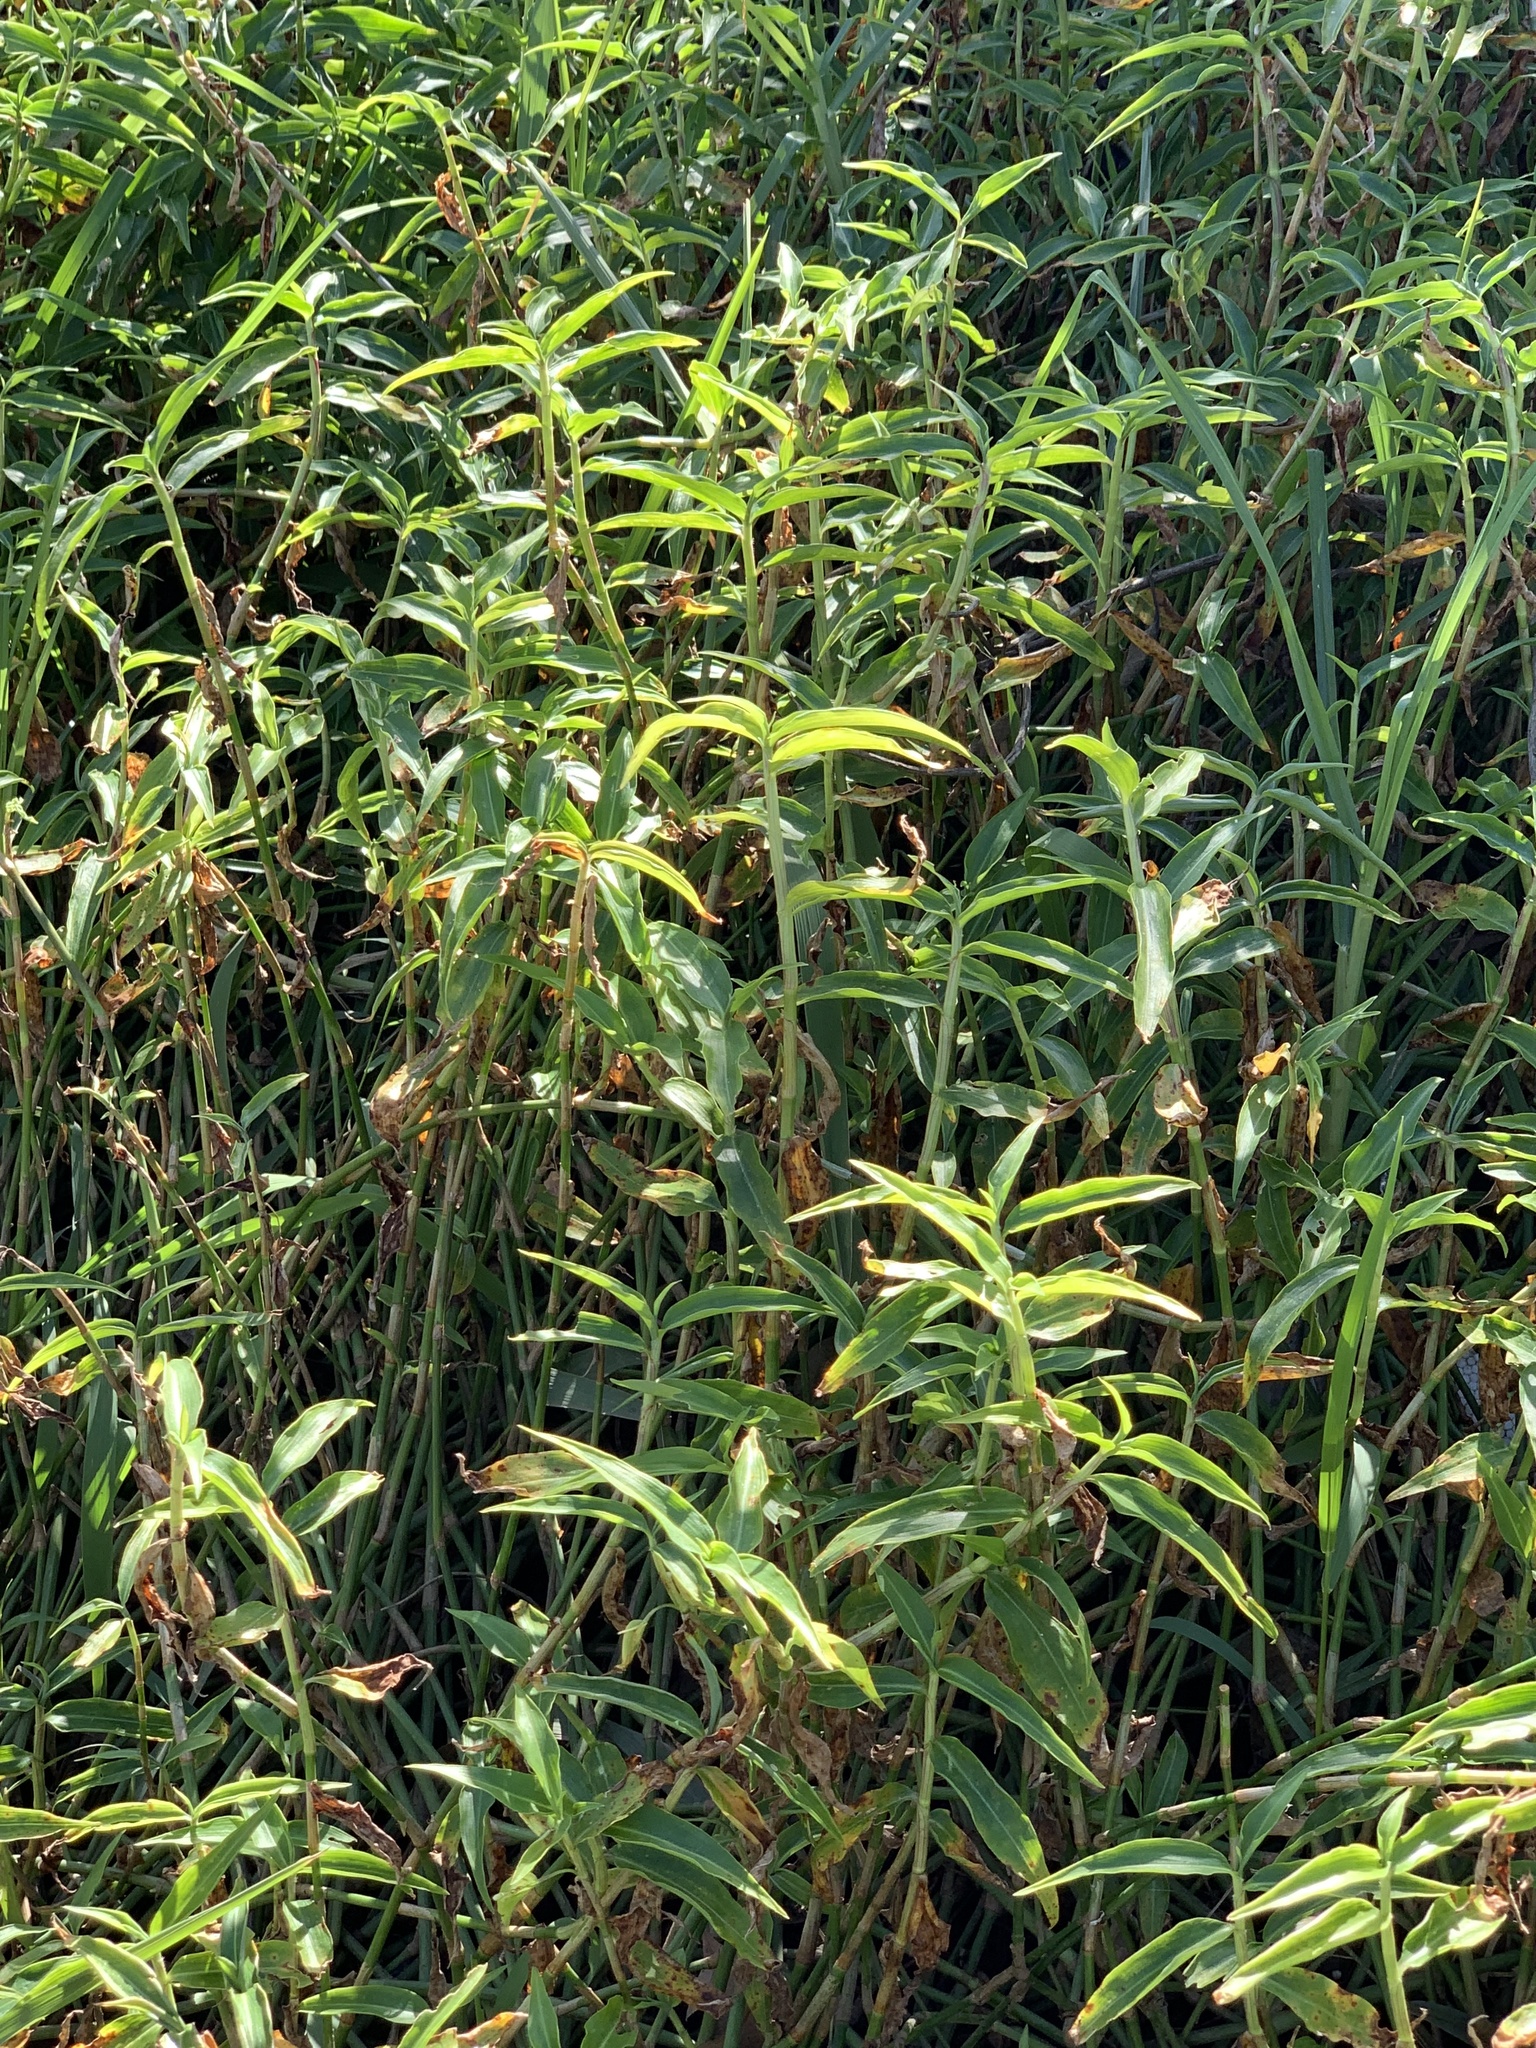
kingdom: Plantae
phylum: Tracheophyta
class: Liliopsida
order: Commelinales
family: Commelinaceae
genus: Commelina
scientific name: Commelina diffusa
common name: Climbing dayflower
